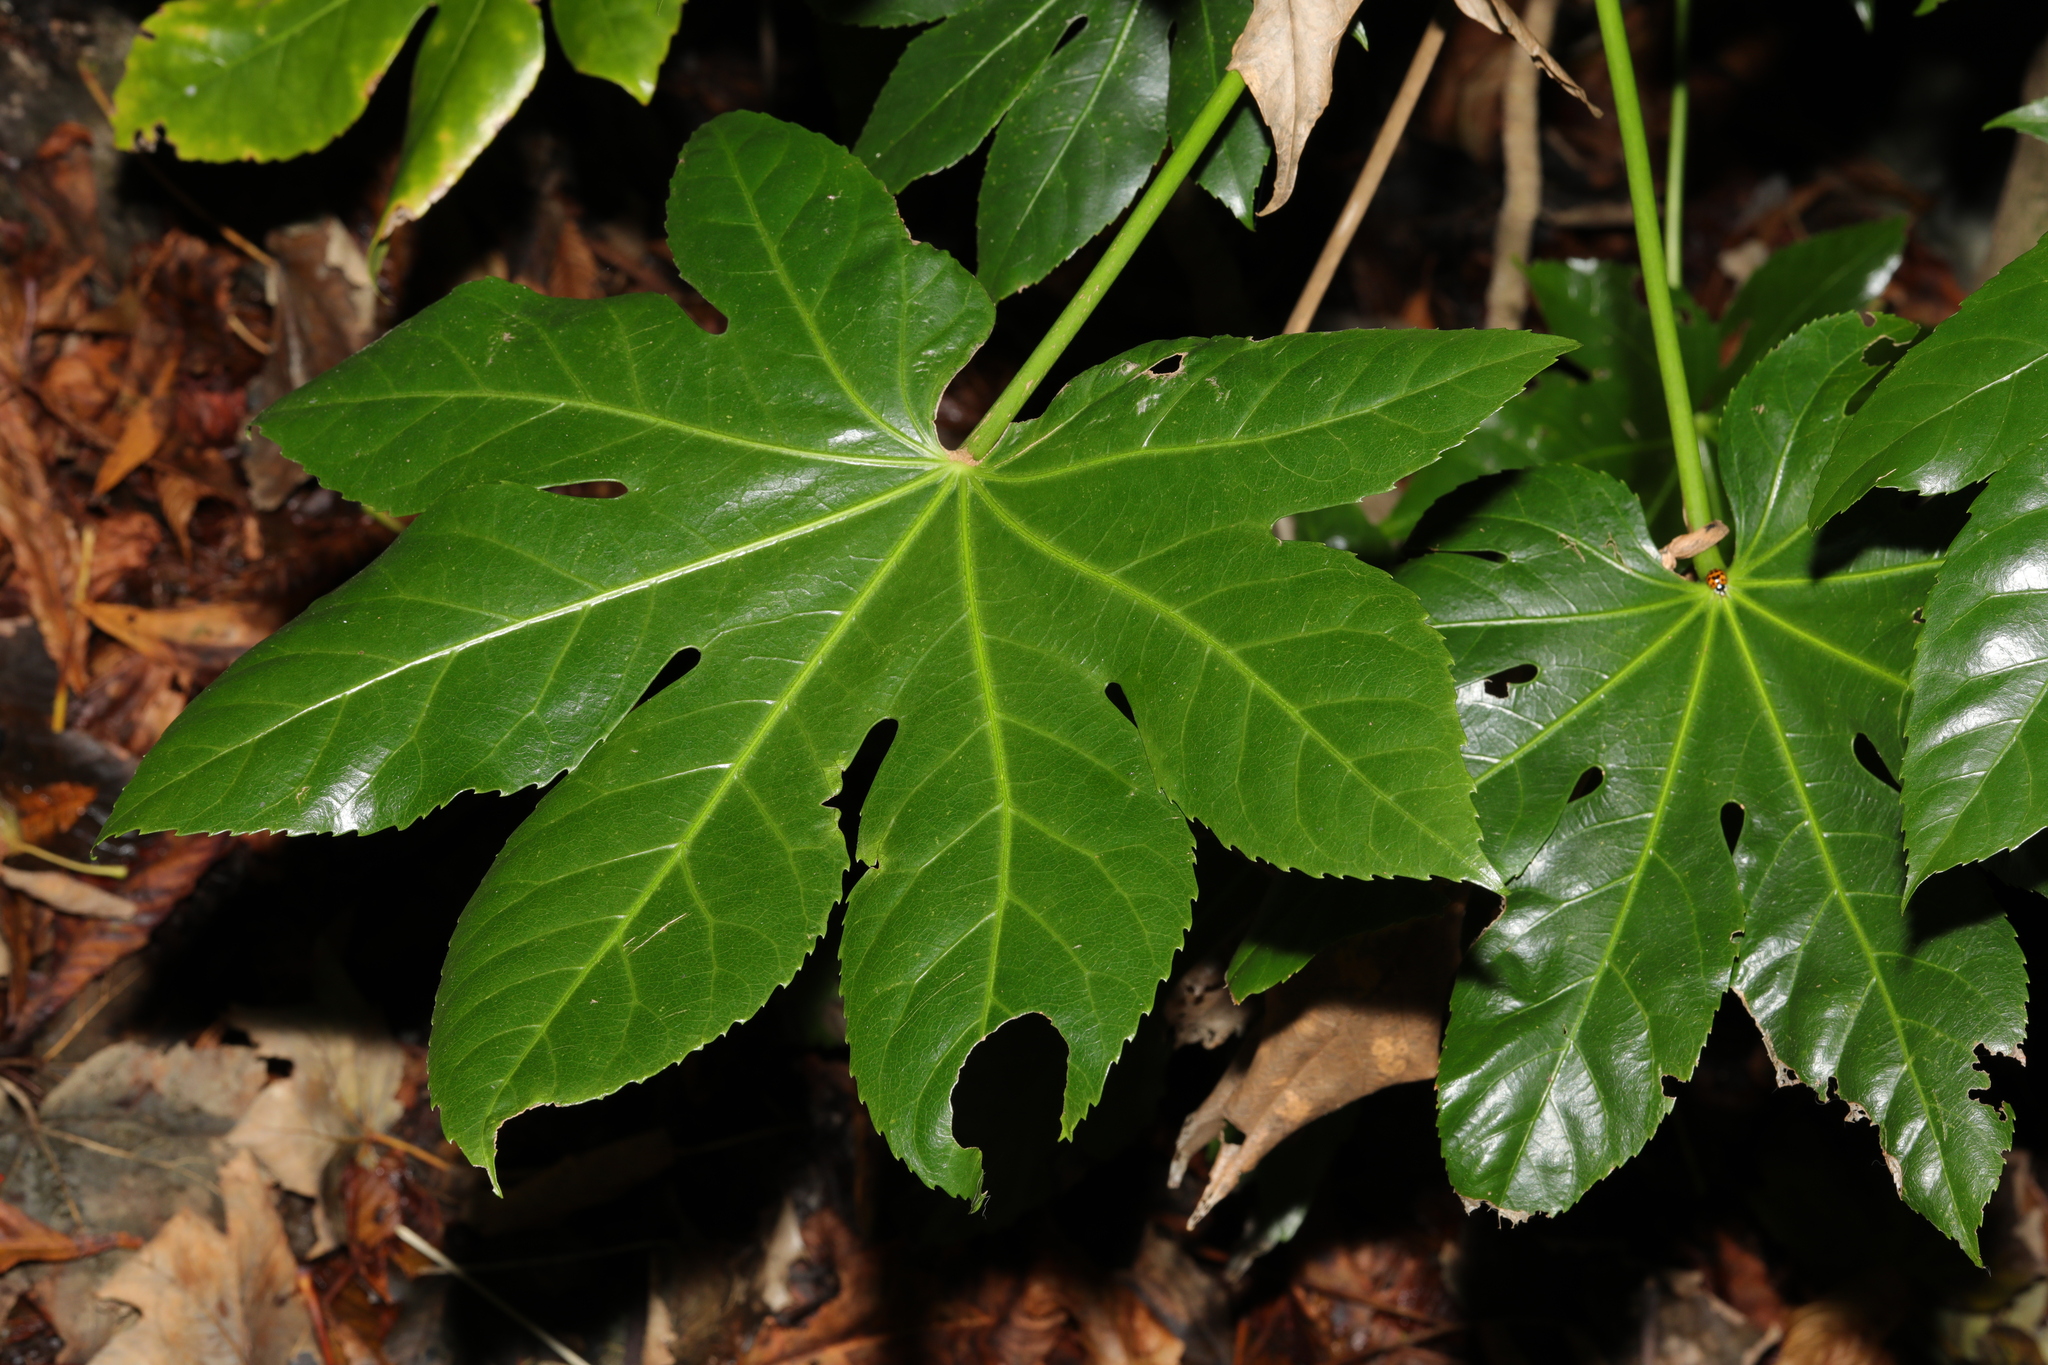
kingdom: Plantae
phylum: Tracheophyta
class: Magnoliopsida
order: Apiales
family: Araliaceae
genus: Fatsia
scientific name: Fatsia japonica
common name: Fatsia
